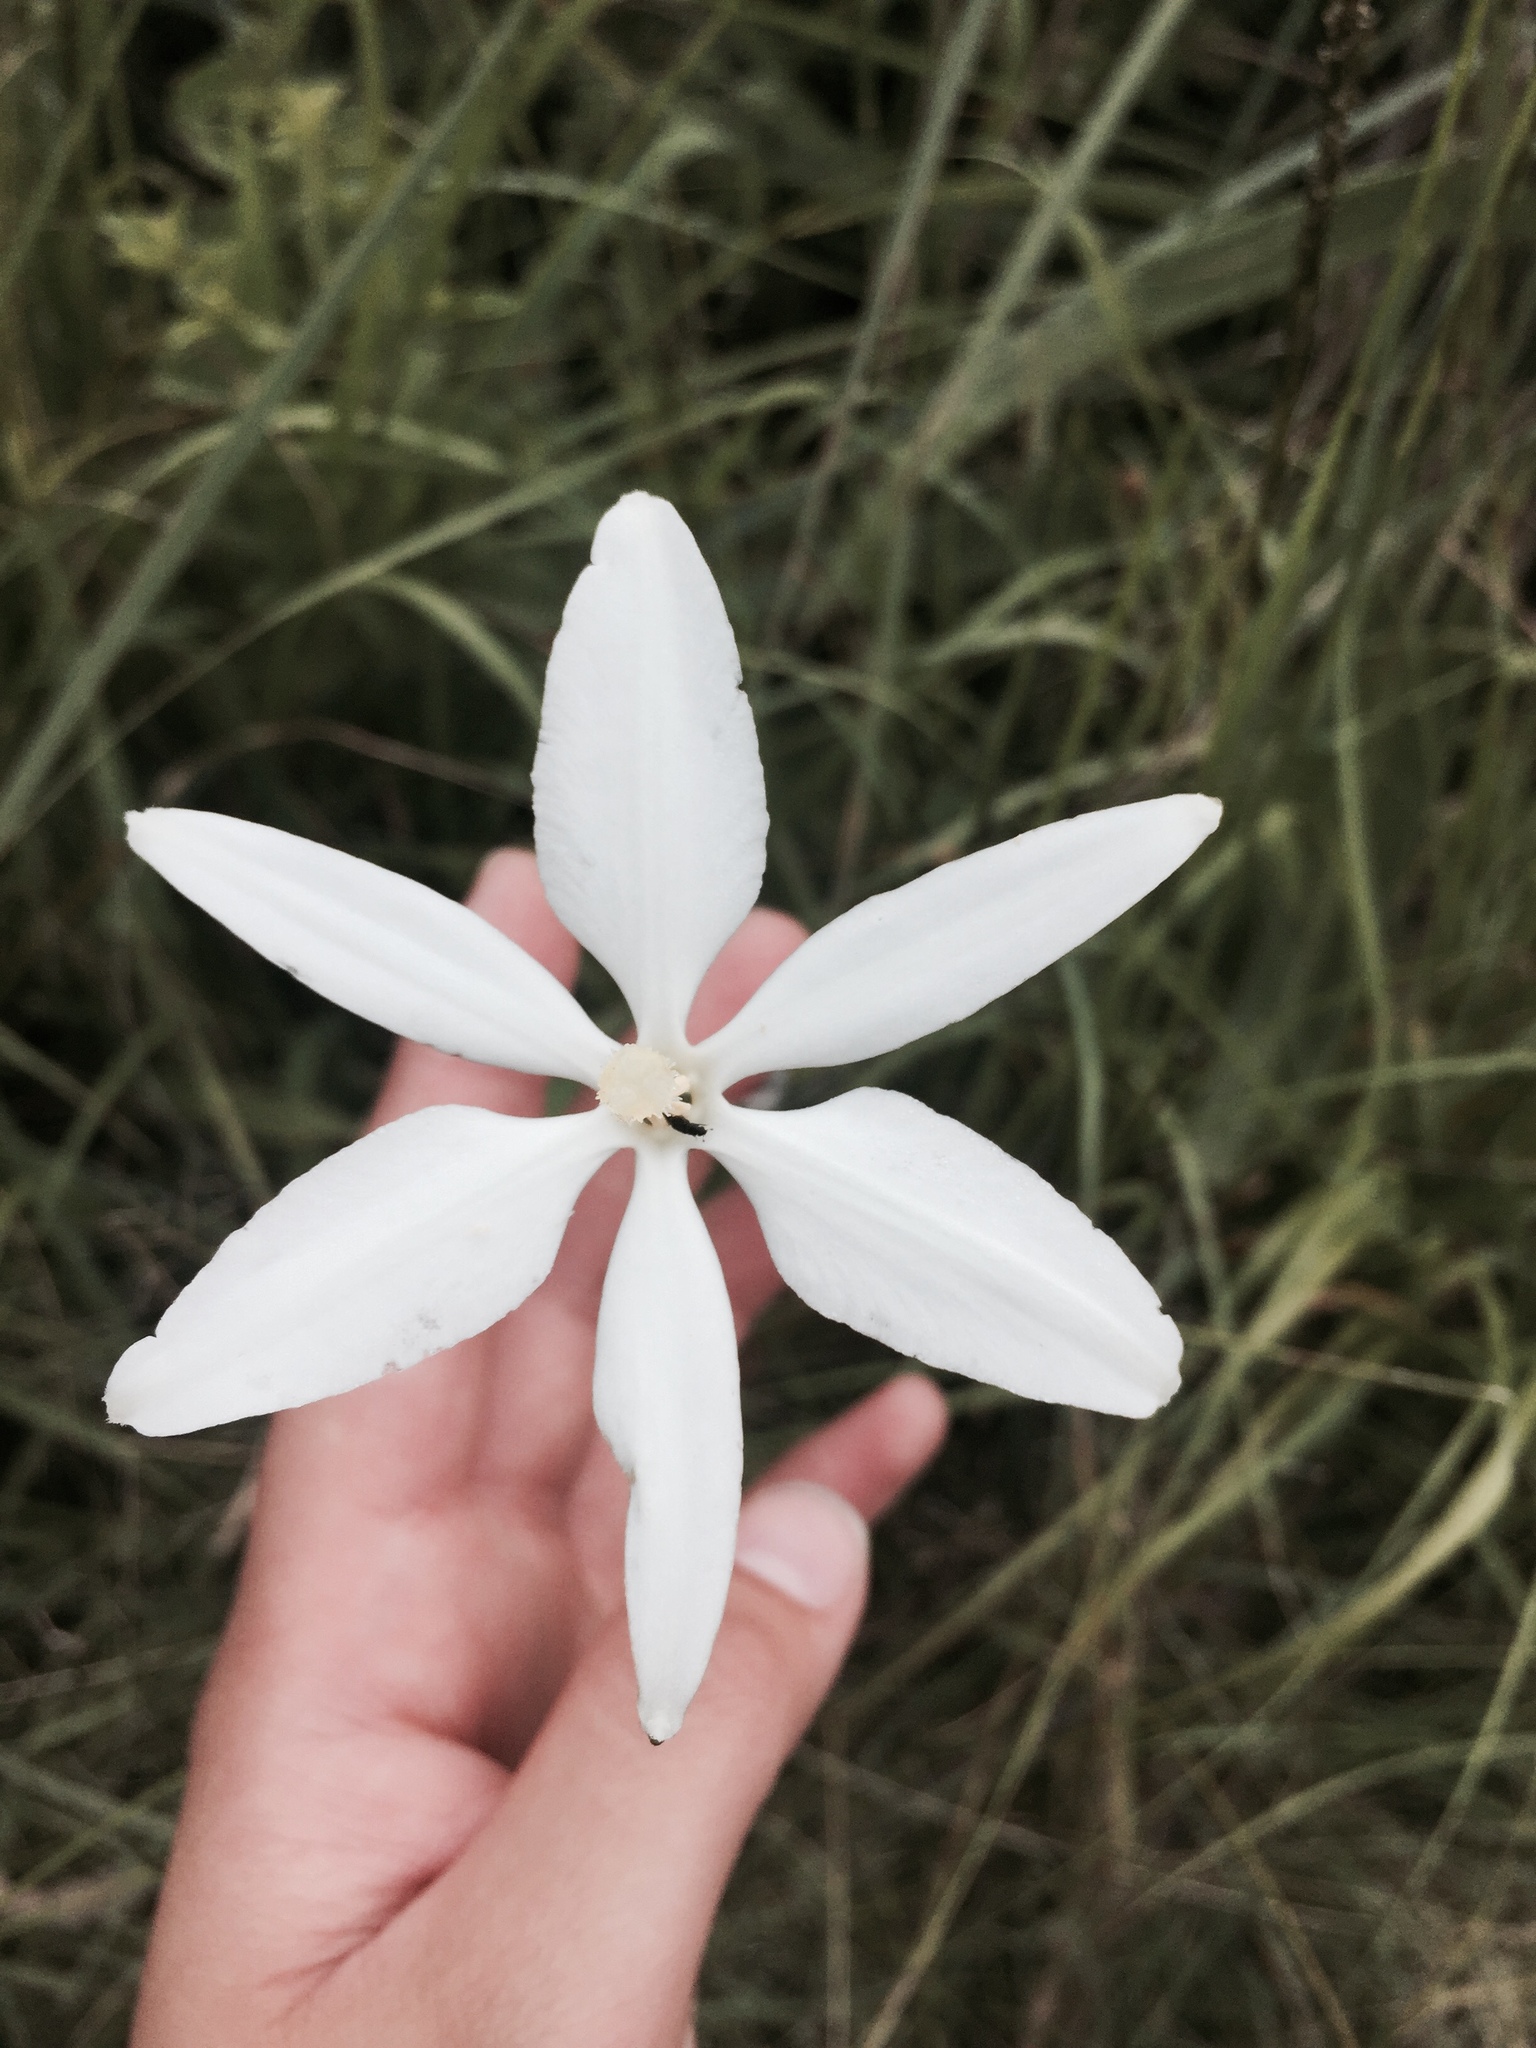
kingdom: Plantae
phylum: Tracheophyta
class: Liliopsida
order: Asparagales
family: Asparagaceae
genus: Milla
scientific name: Milla biflora
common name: Mexican-star
